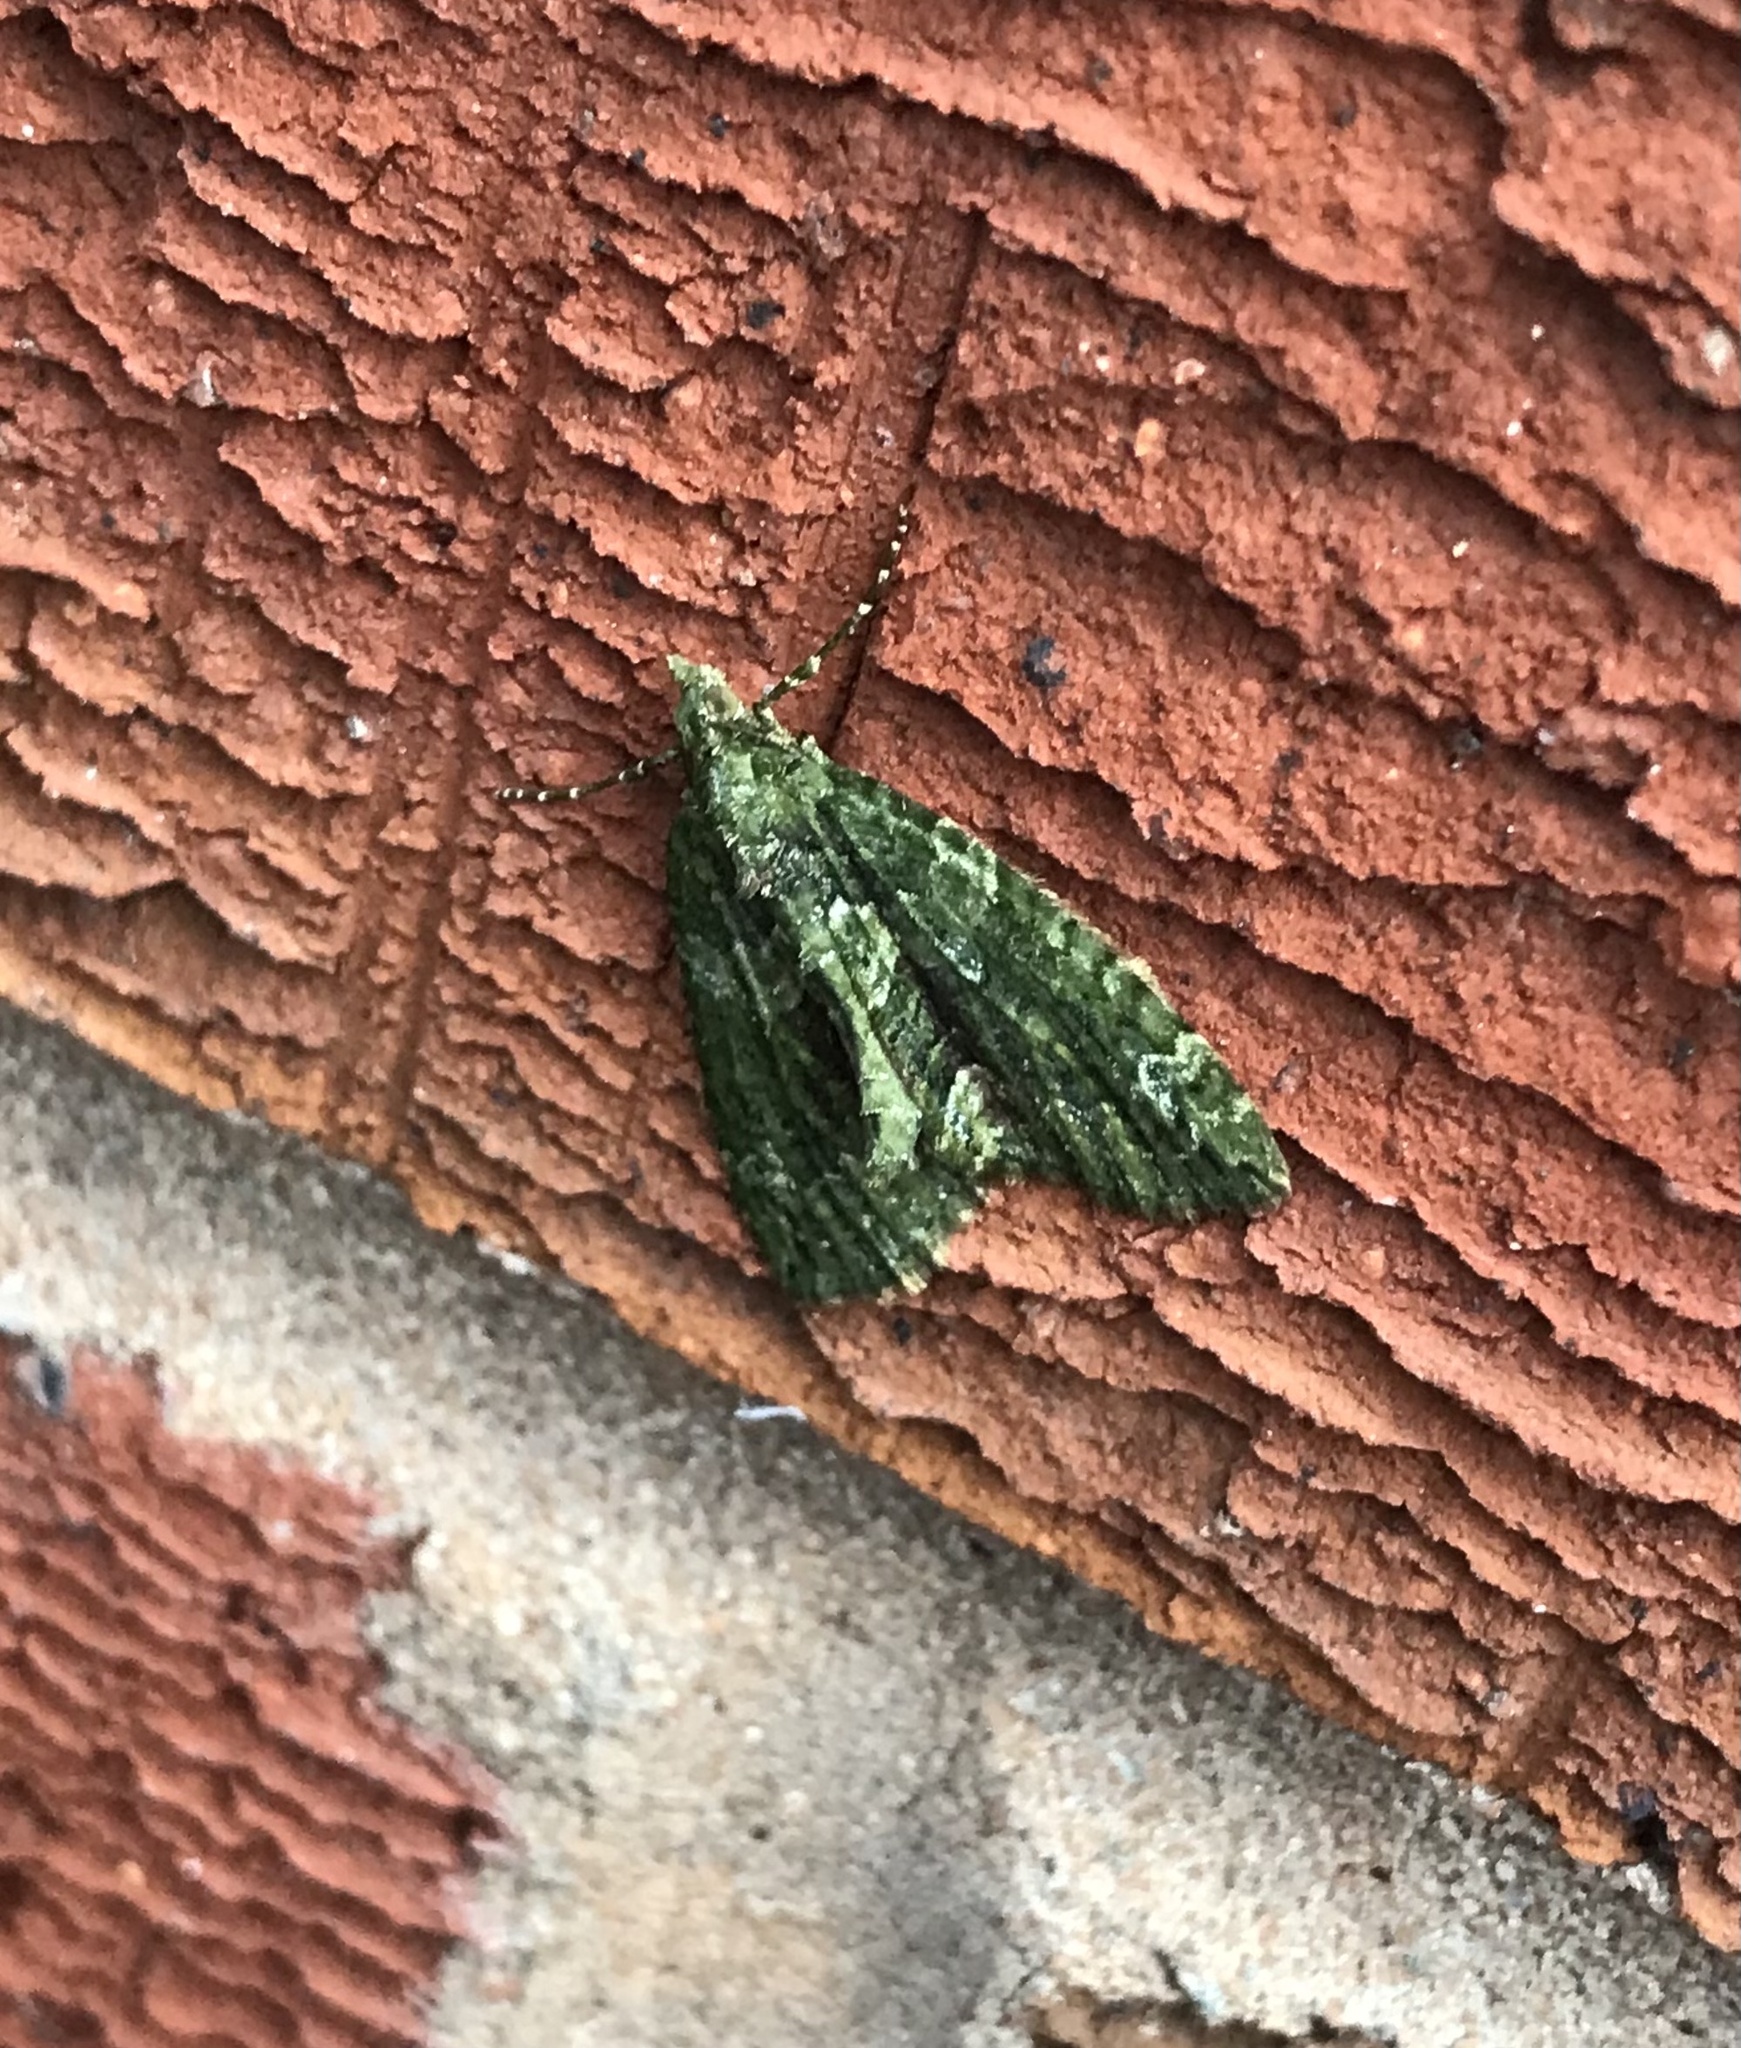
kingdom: Animalia
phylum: Arthropoda
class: Insecta
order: Lepidoptera
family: Geometridae
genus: Chloroclysta
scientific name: Chloroclysta siterata
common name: Red-green carpet
